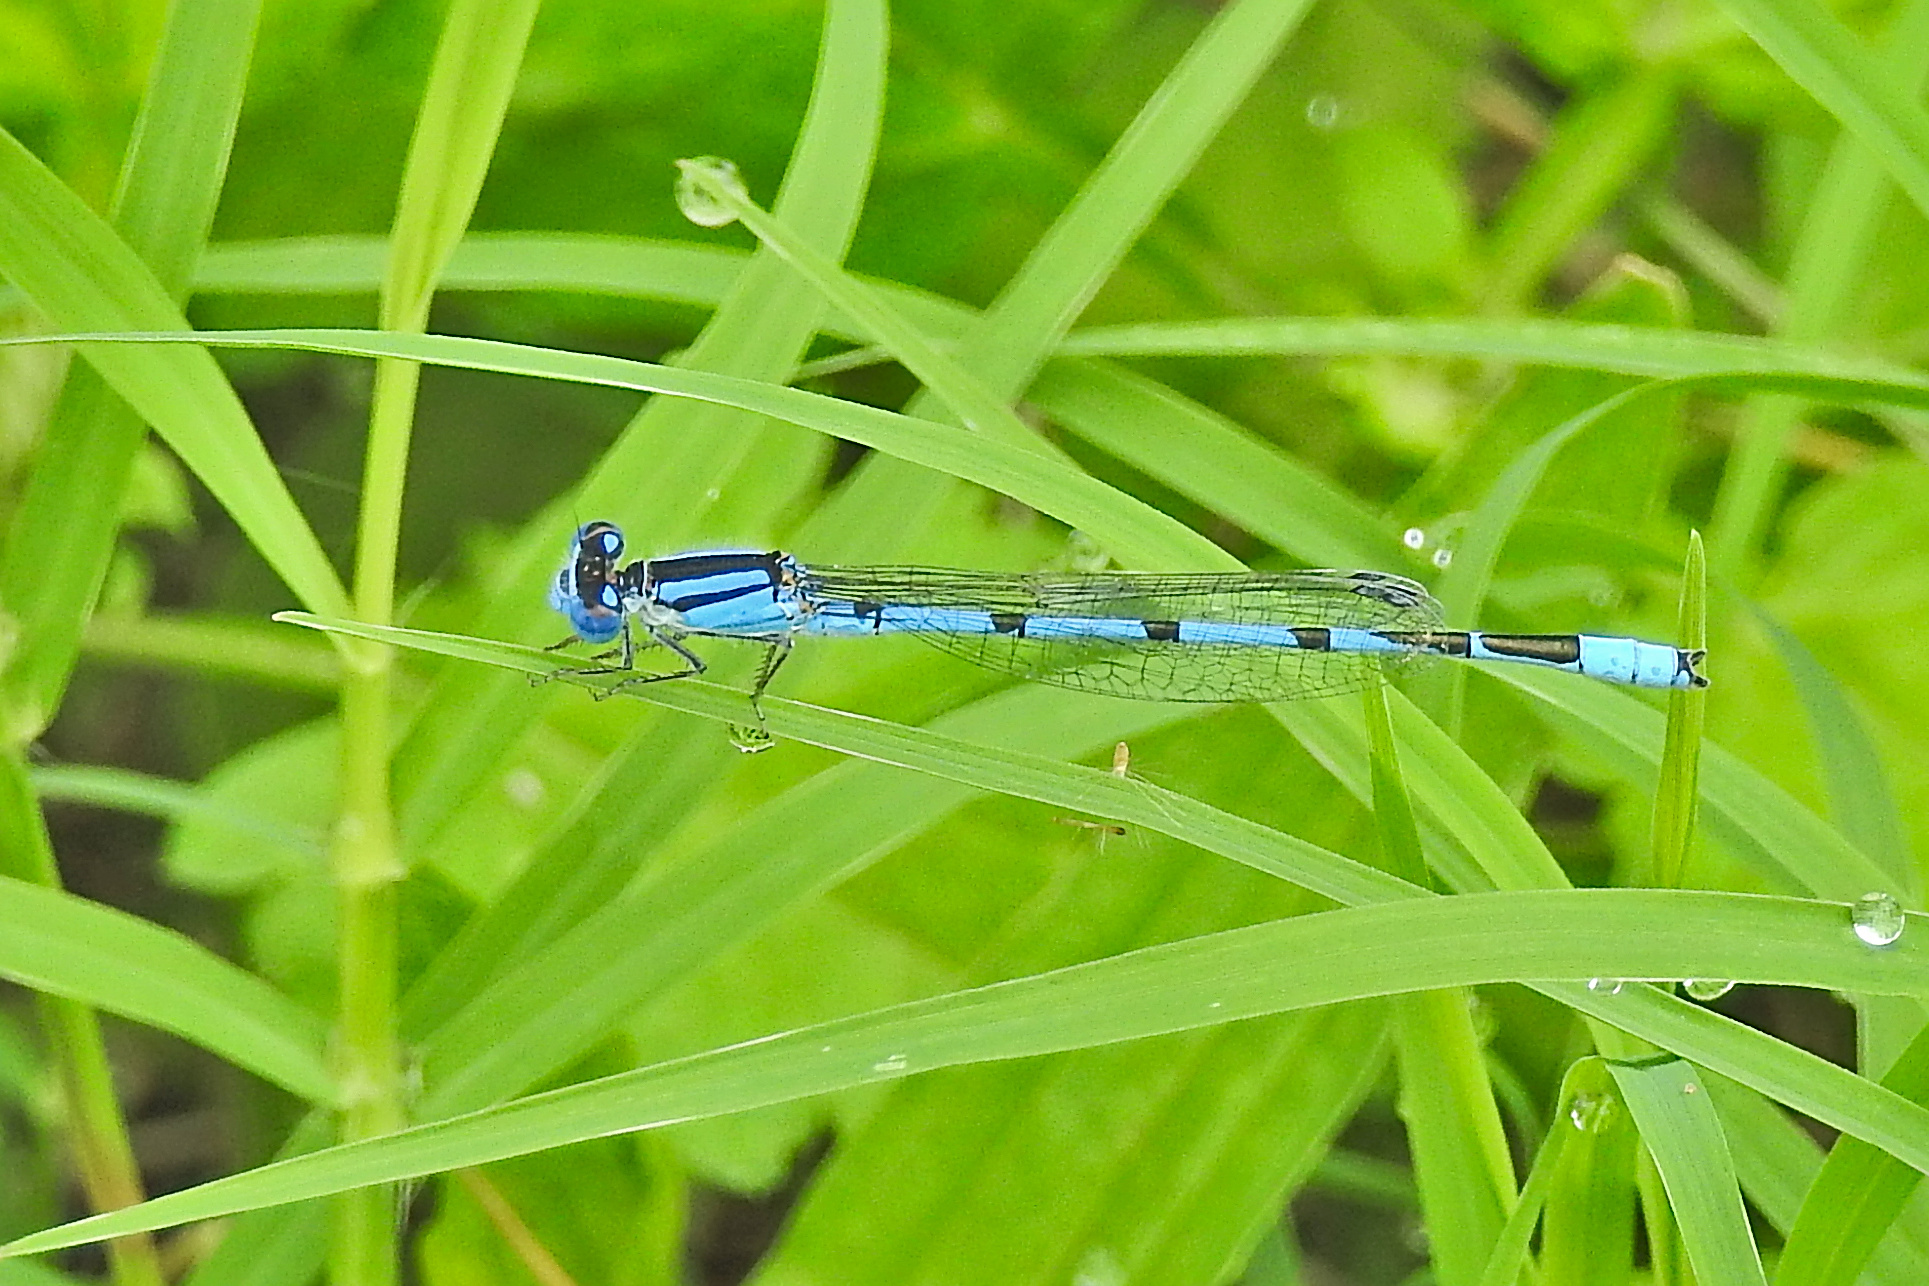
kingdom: Animalia
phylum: Arthropoda
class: Insecta
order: Odonata
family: Coenagrionidae
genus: Enallagma
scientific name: Enallagma civile
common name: Damselfly
